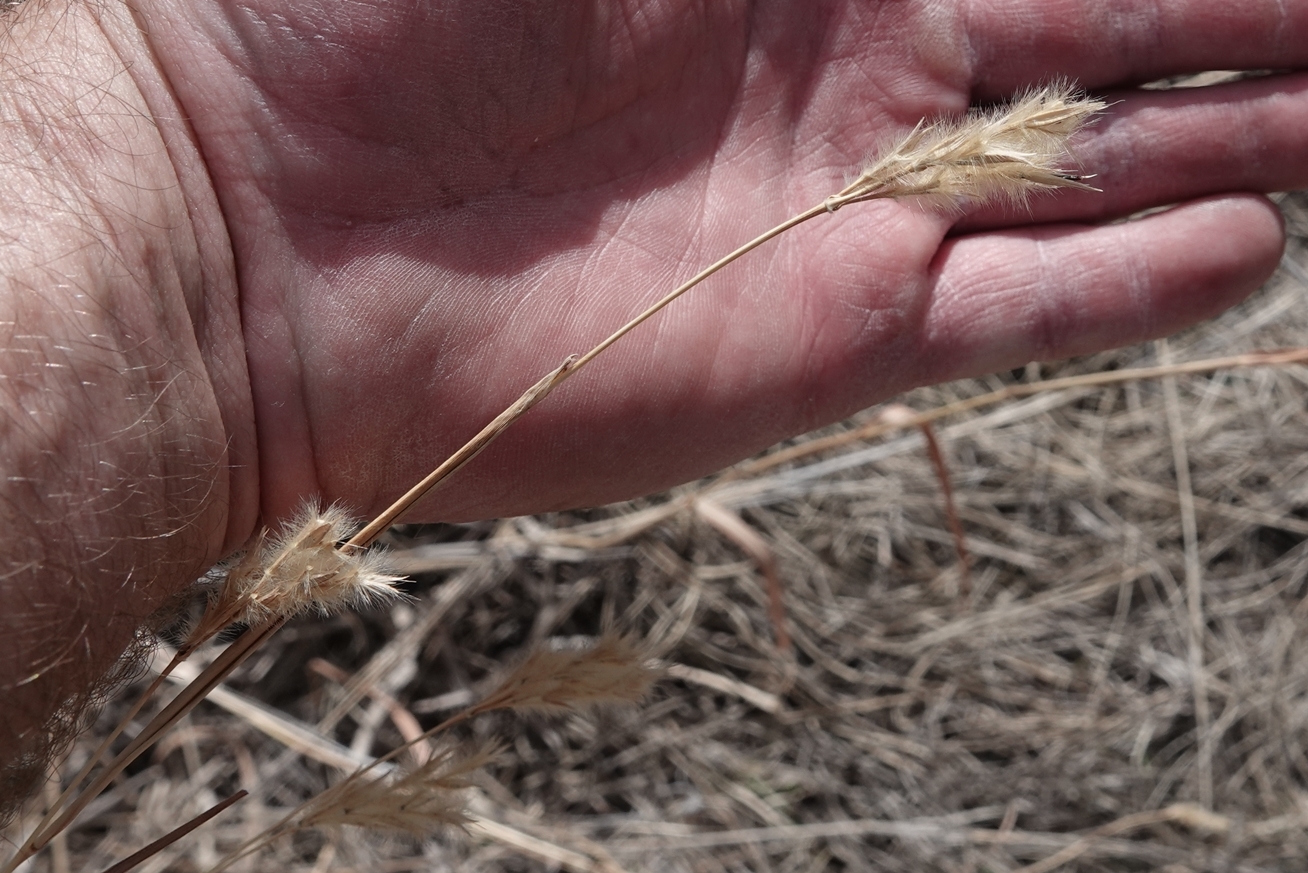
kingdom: Plantae
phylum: Tracheophyta
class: Liliopsida
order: Poales
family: Poaceae
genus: Andropogon
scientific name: Andropogon hallii
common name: Sand bluestem
